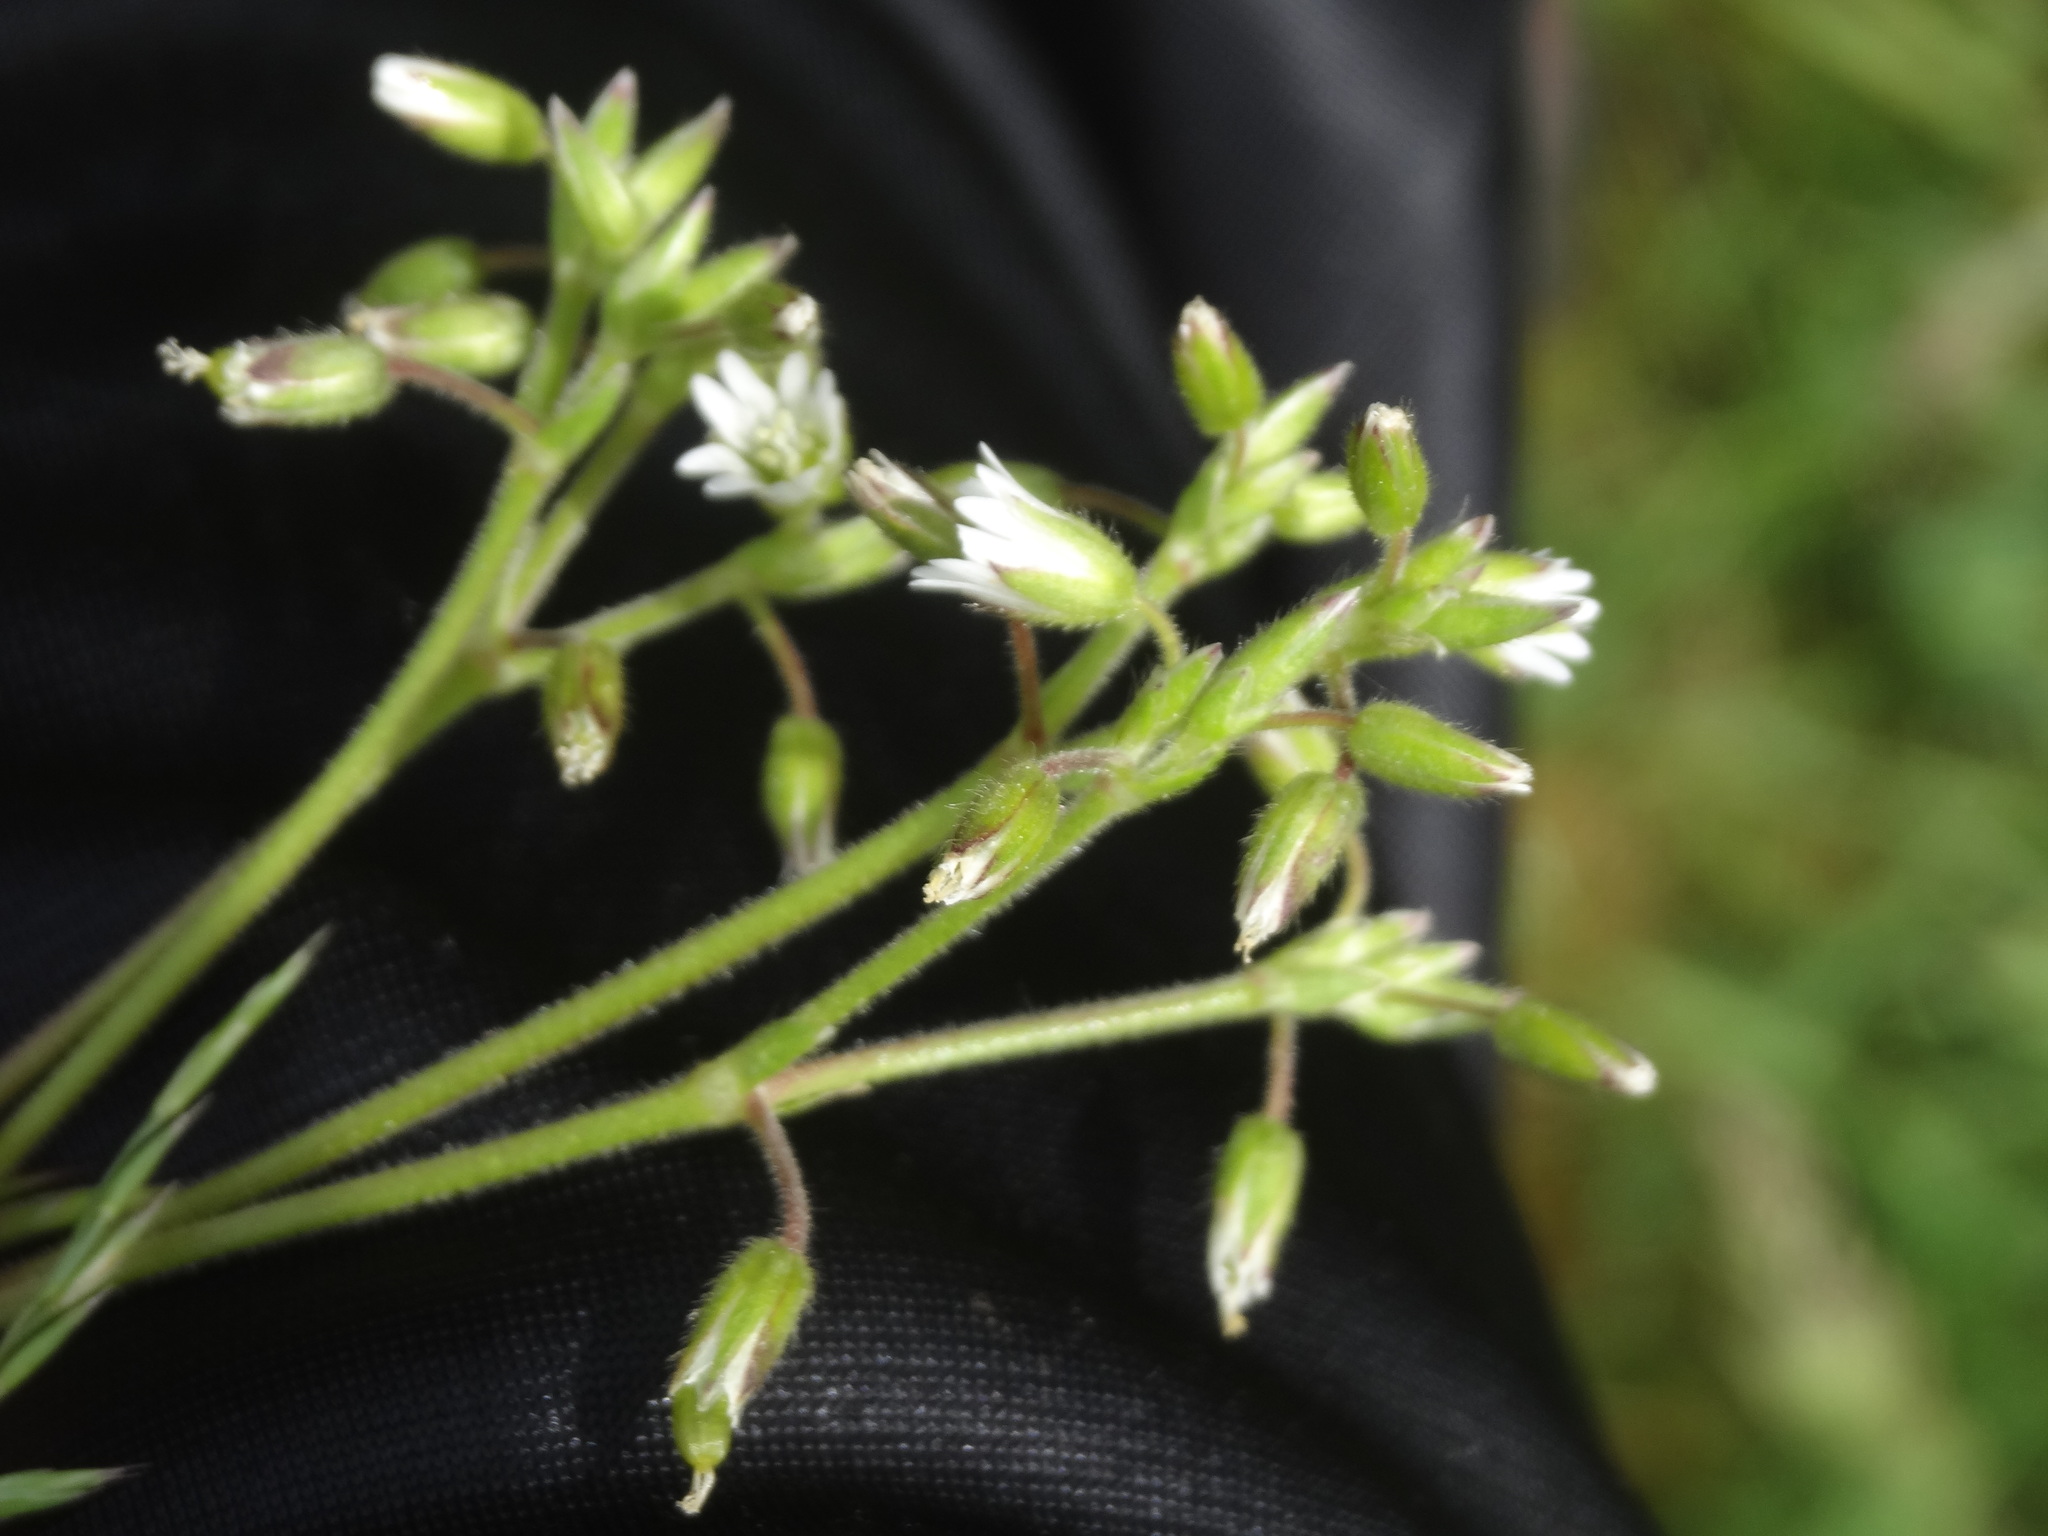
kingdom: Plantae
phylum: Tracheophyta
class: Magnoliopsida
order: Caryophyllales
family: Caryophyllaceae
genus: Cerastium
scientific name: Cerastium holosteoides
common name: Big chickweed
